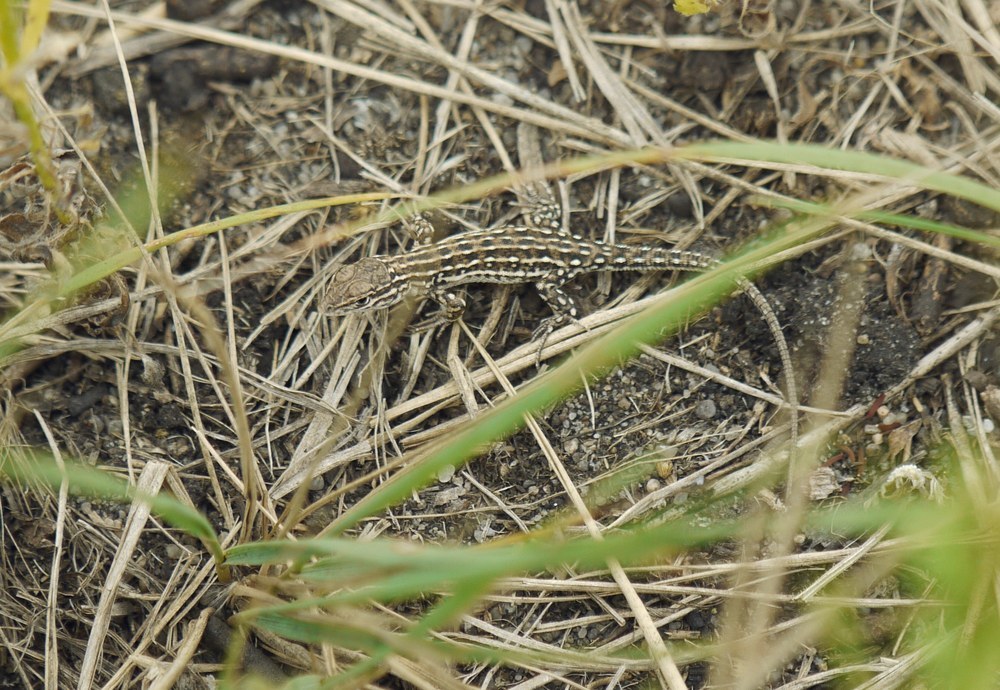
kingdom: Animalia
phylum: Chordata
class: Squamata
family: Lacertidae
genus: Eremias
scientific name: Eremias arguta
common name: Racerunner
